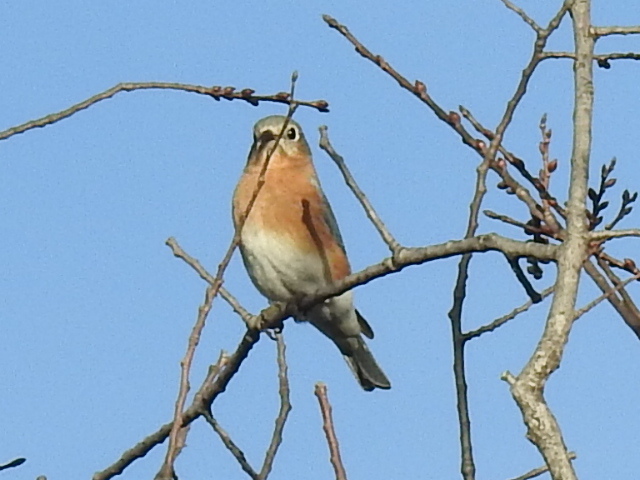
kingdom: Animalia
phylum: Chordata
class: Aves
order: Passeriformes
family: Turdidae
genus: Sialia
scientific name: Sialia sialis
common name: Eastern bluebird
